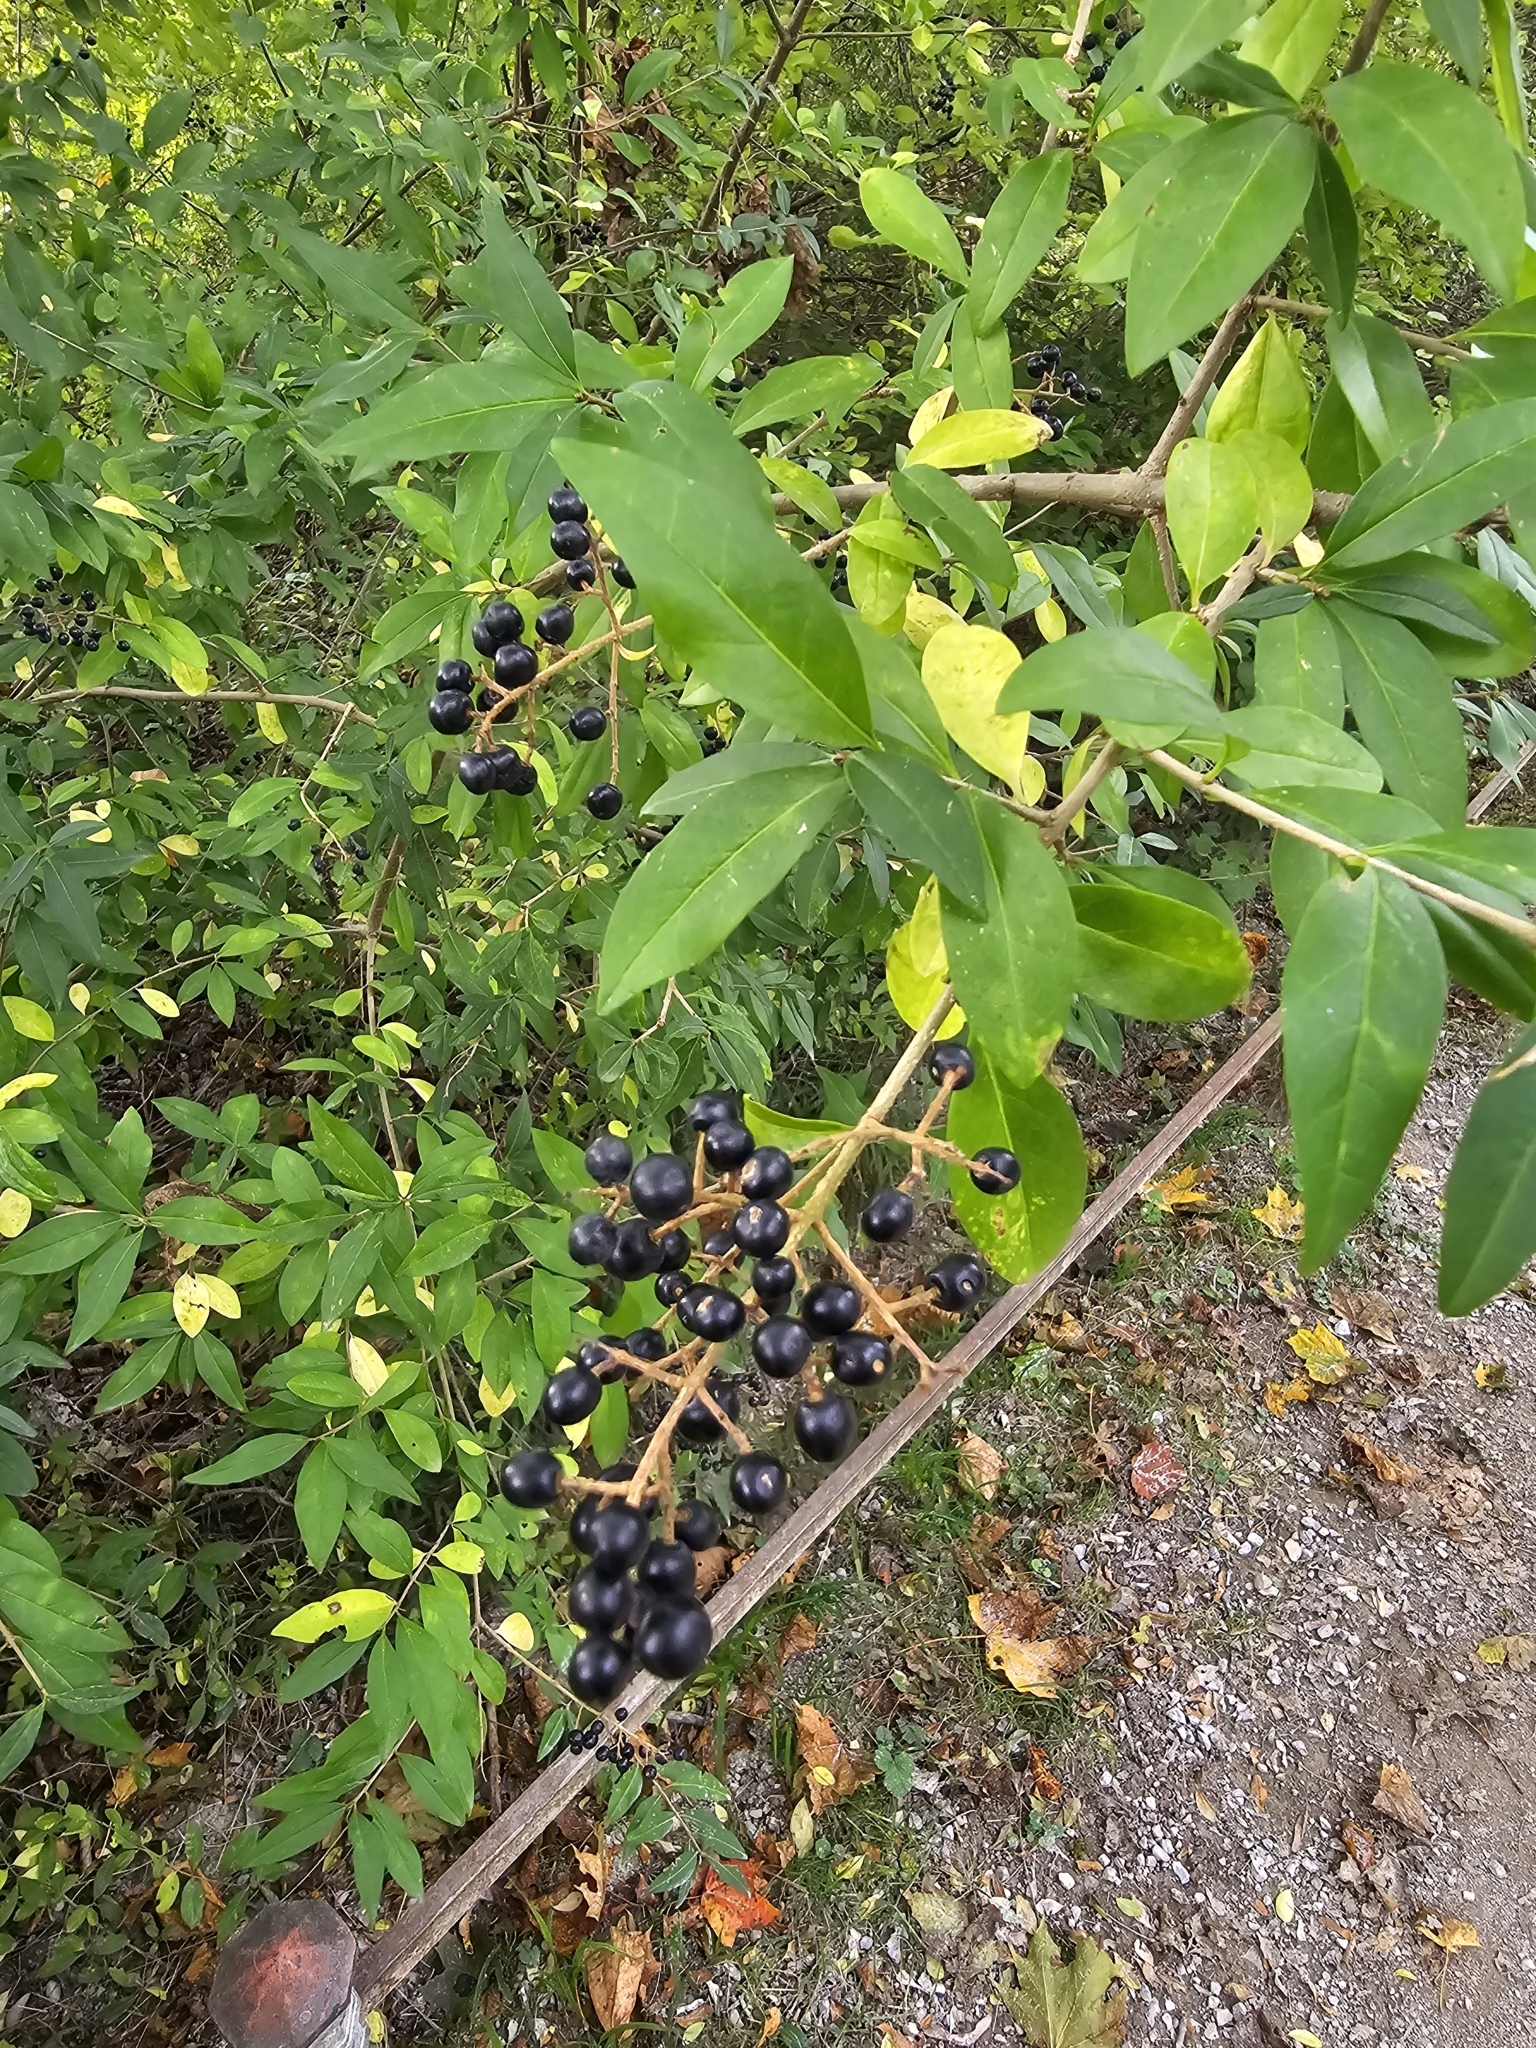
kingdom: Plantae
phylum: Tracheophyta
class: Magnoliopsida
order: Lamiales
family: Oleaceae
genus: Ligustrum
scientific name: Ligustrum vulgare
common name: Wild privet
